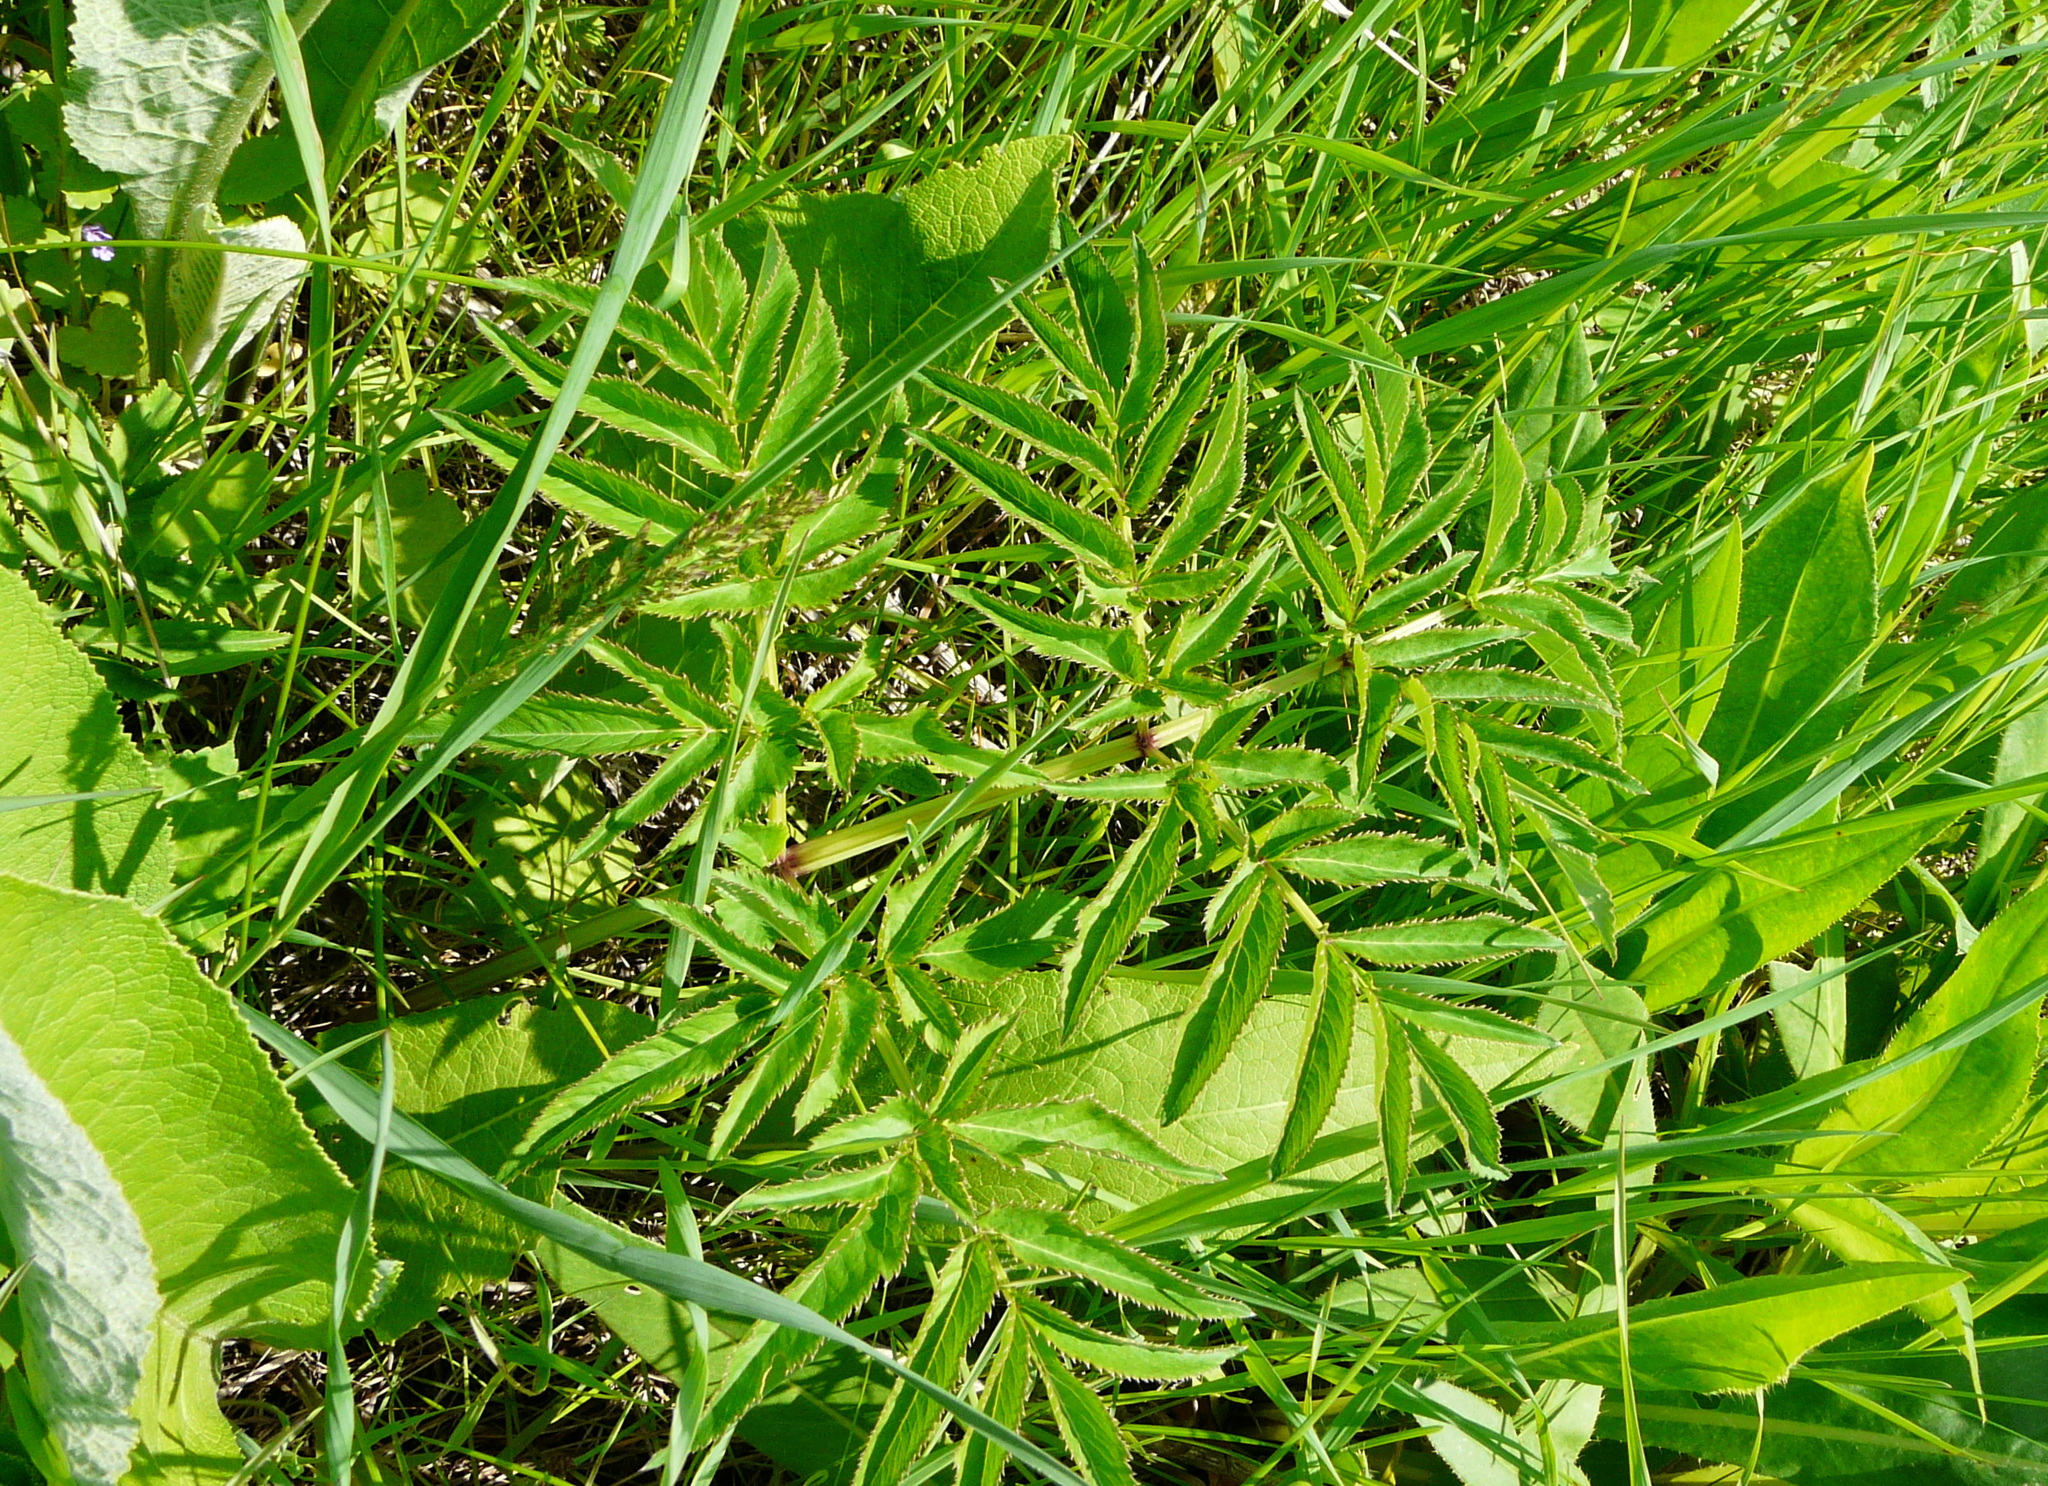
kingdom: Plantae
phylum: Tracheophyta
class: Magnoliopsida
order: Apiales
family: Apiaceae
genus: Angelica
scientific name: Angelica sylvestris
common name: Wild angelica
